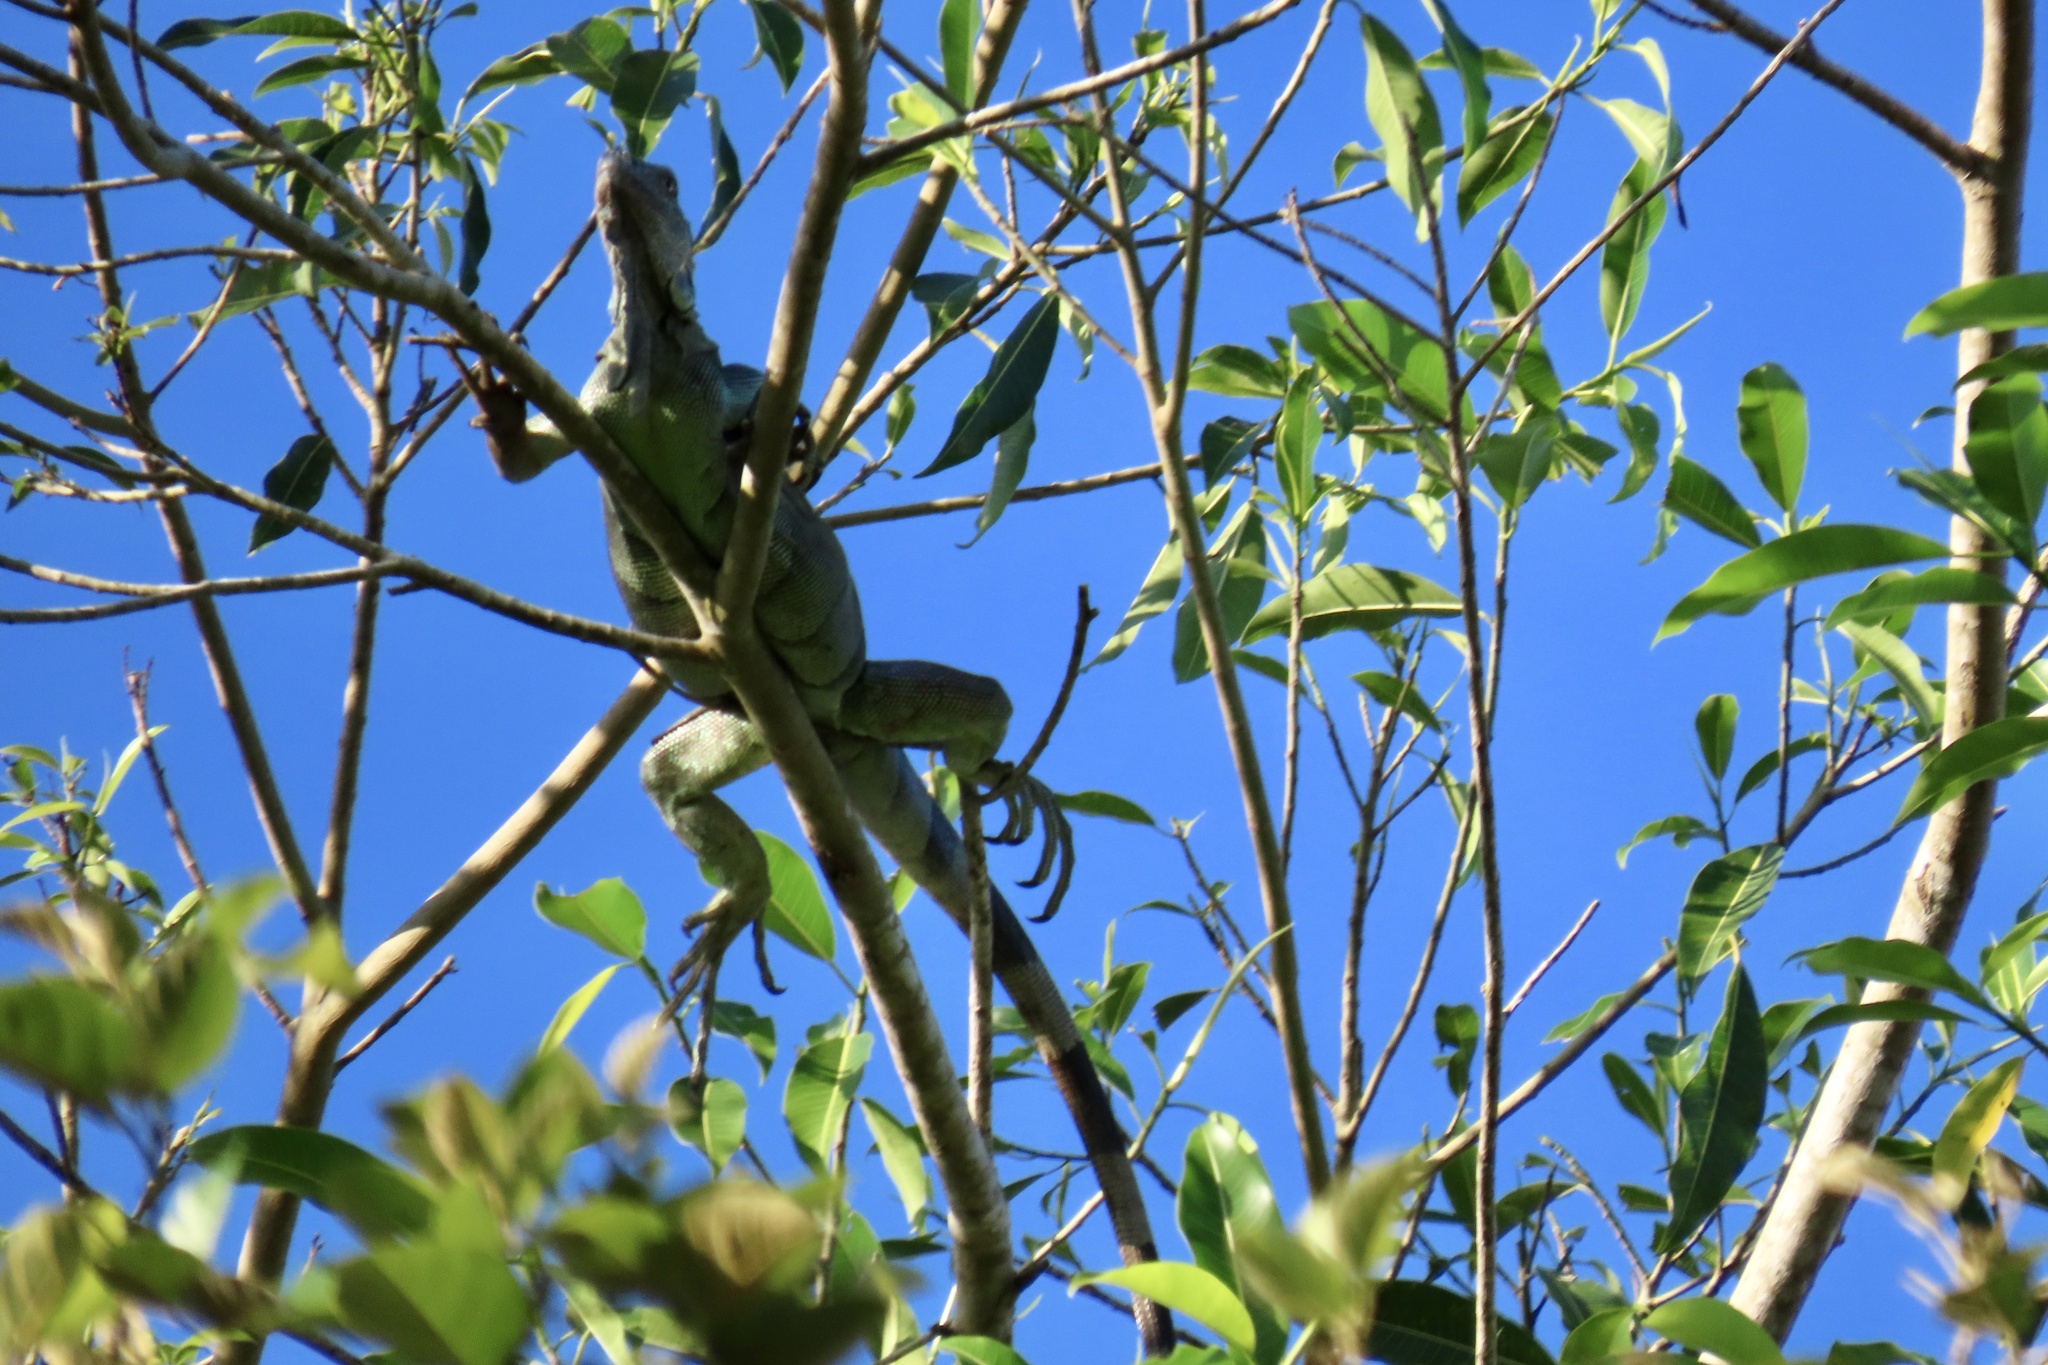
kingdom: Animalia
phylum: Chordata
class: Squamata
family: Iguanidae
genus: Iguana
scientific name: Iguana iguana
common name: Green iguana
